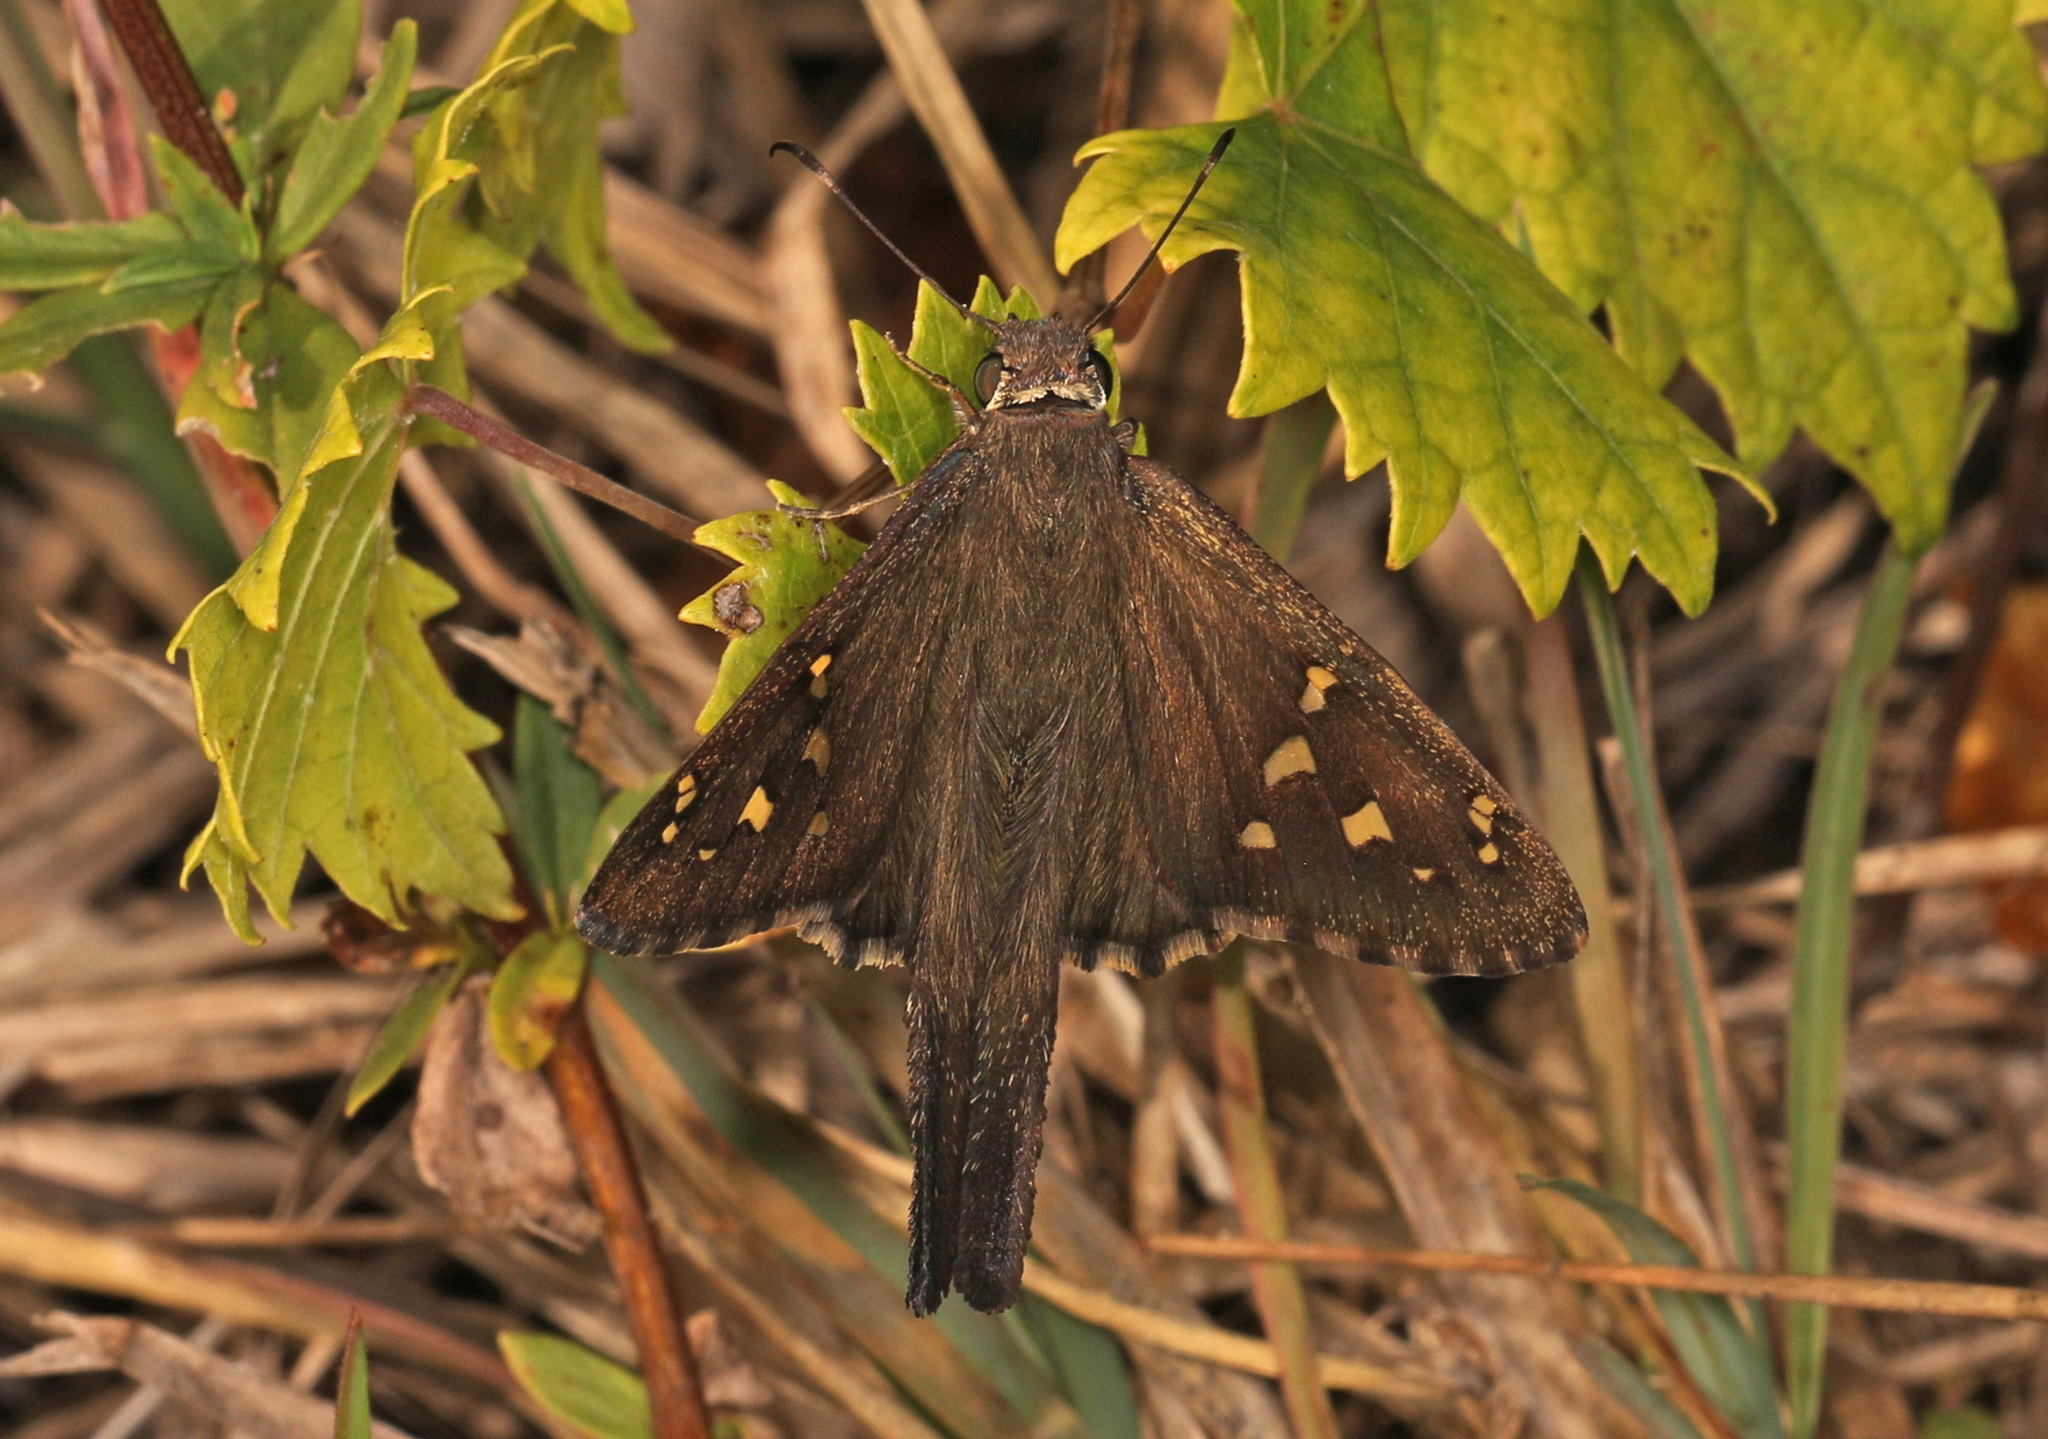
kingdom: Animalia
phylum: Arthropoda
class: Insecta
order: Lepidoptera
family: Hesperiidae
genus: Thorybes
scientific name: Thorybes
